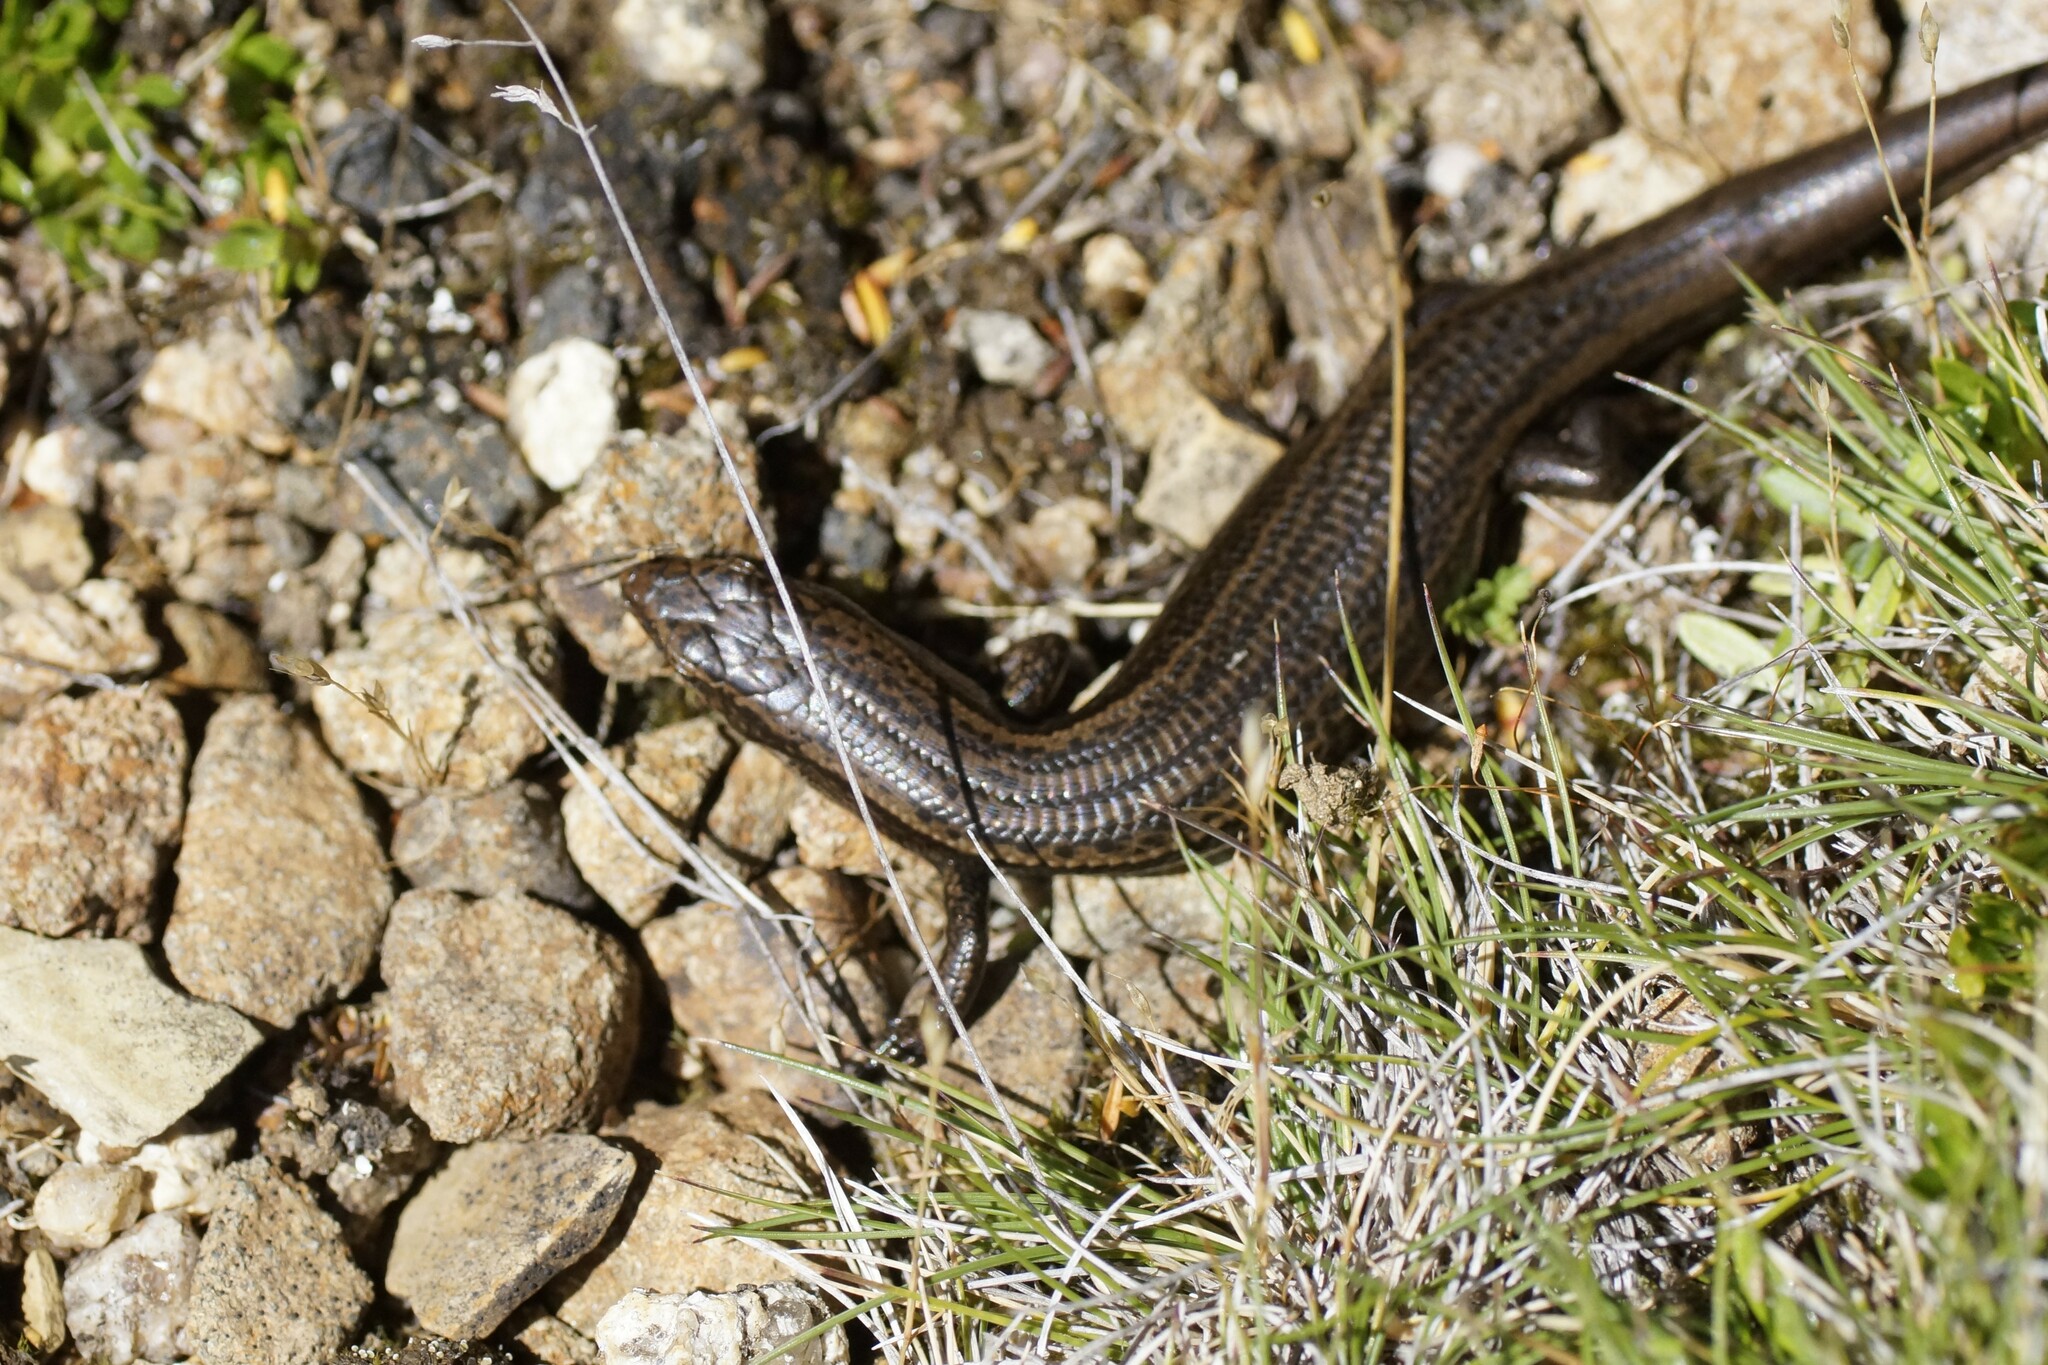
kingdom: Animalia
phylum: Chordata
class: Squamata
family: Scincidae
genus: Carinascincus
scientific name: Carinascincus metallicus
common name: Metallic cool-skink
